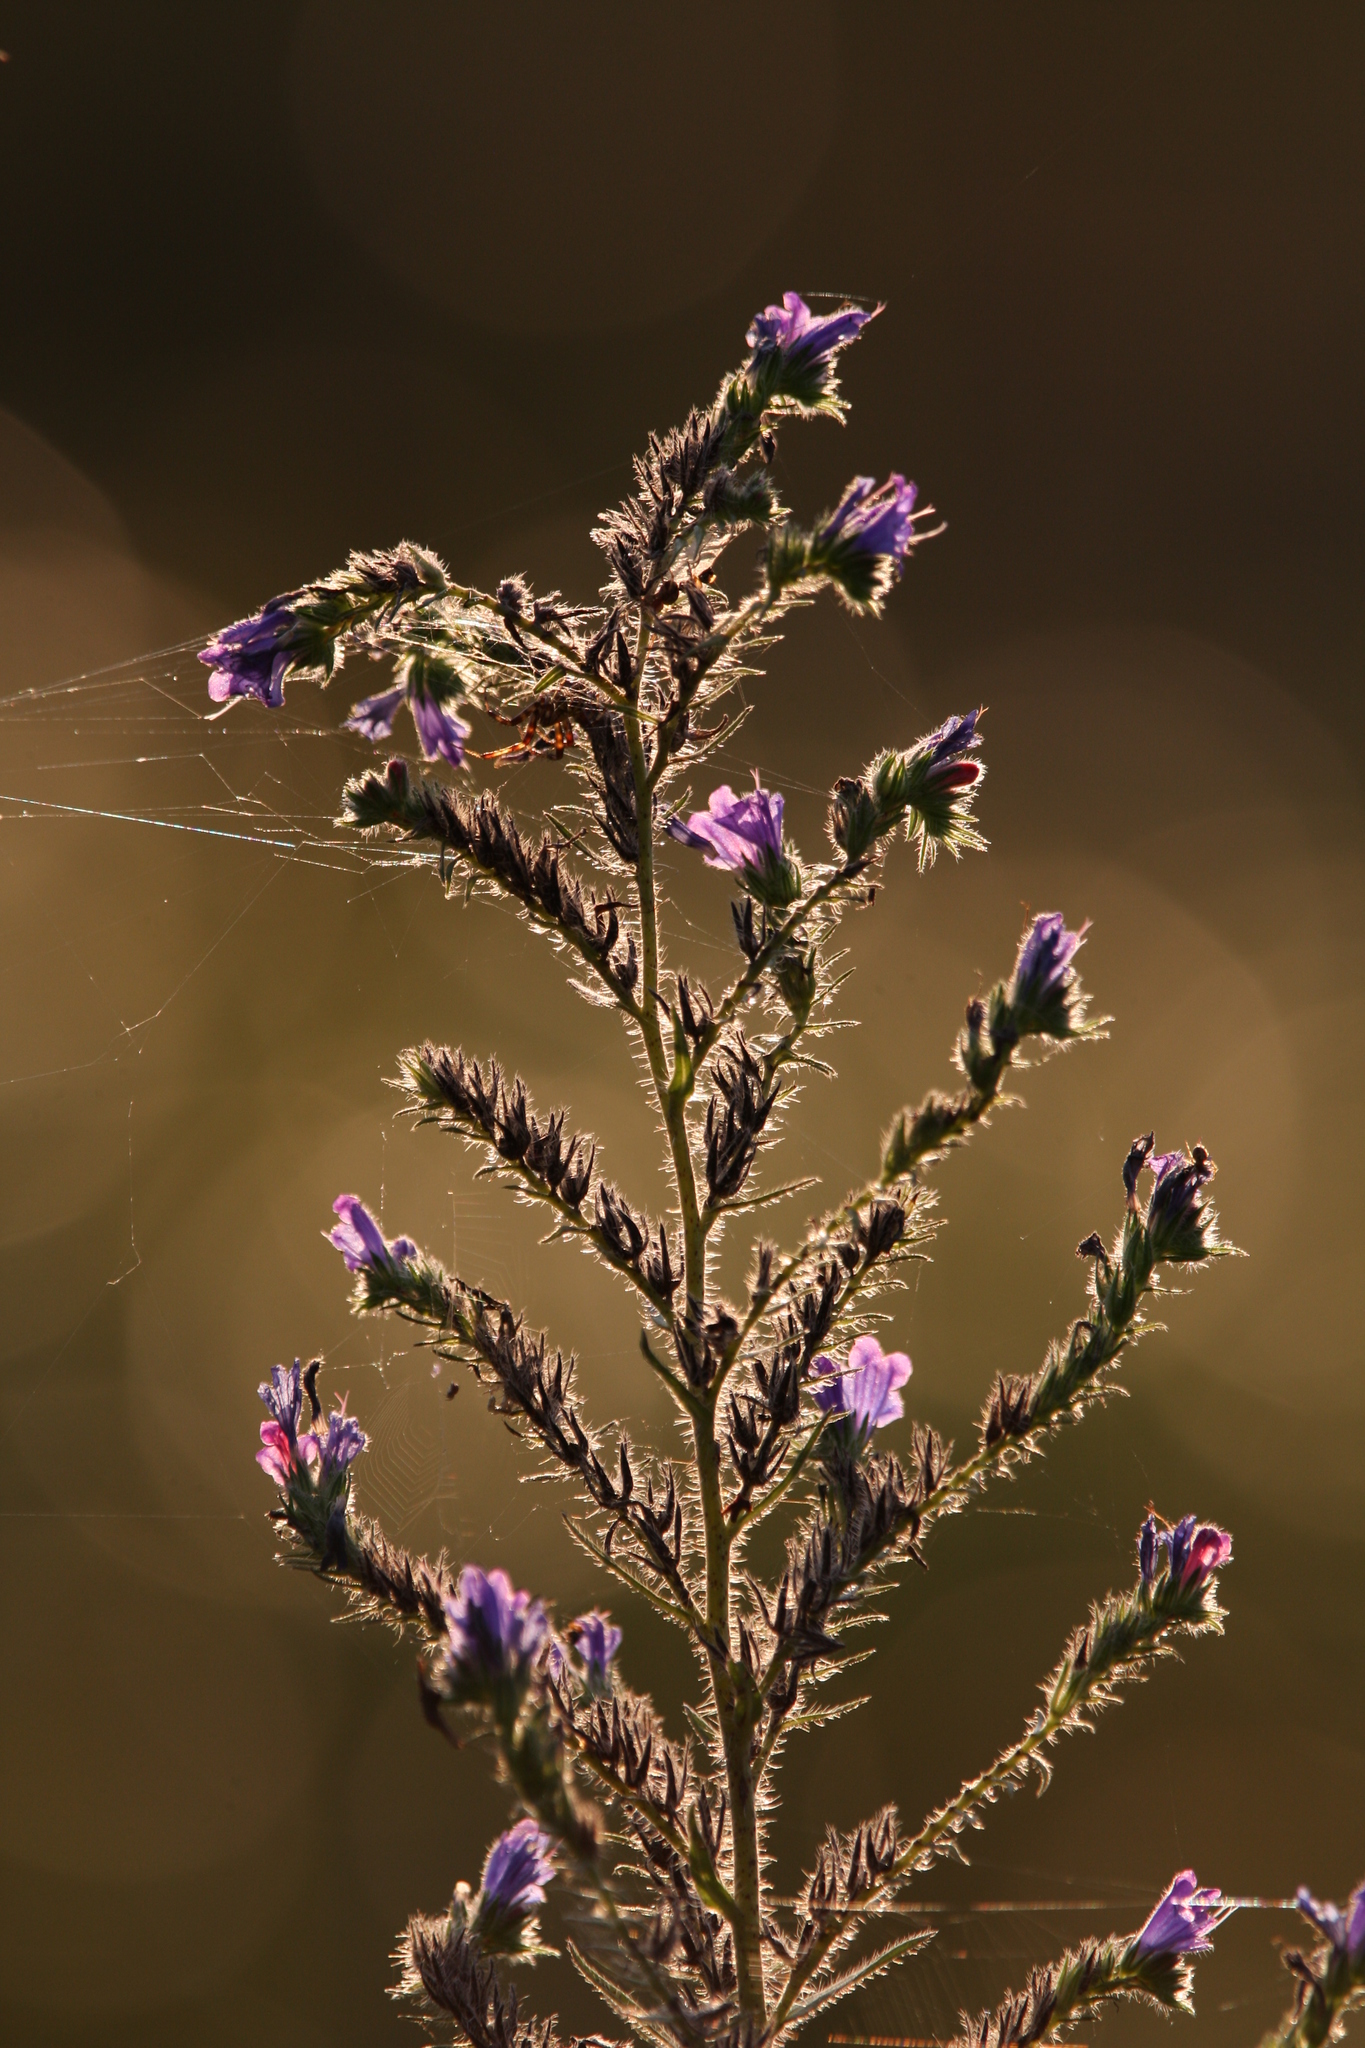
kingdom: Plantae
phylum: Tracheophyta
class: Magnoliopsida
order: Boraginales
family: Boraginaceae
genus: Echium
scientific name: Echium vulgare
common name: Common viper's bugloss
